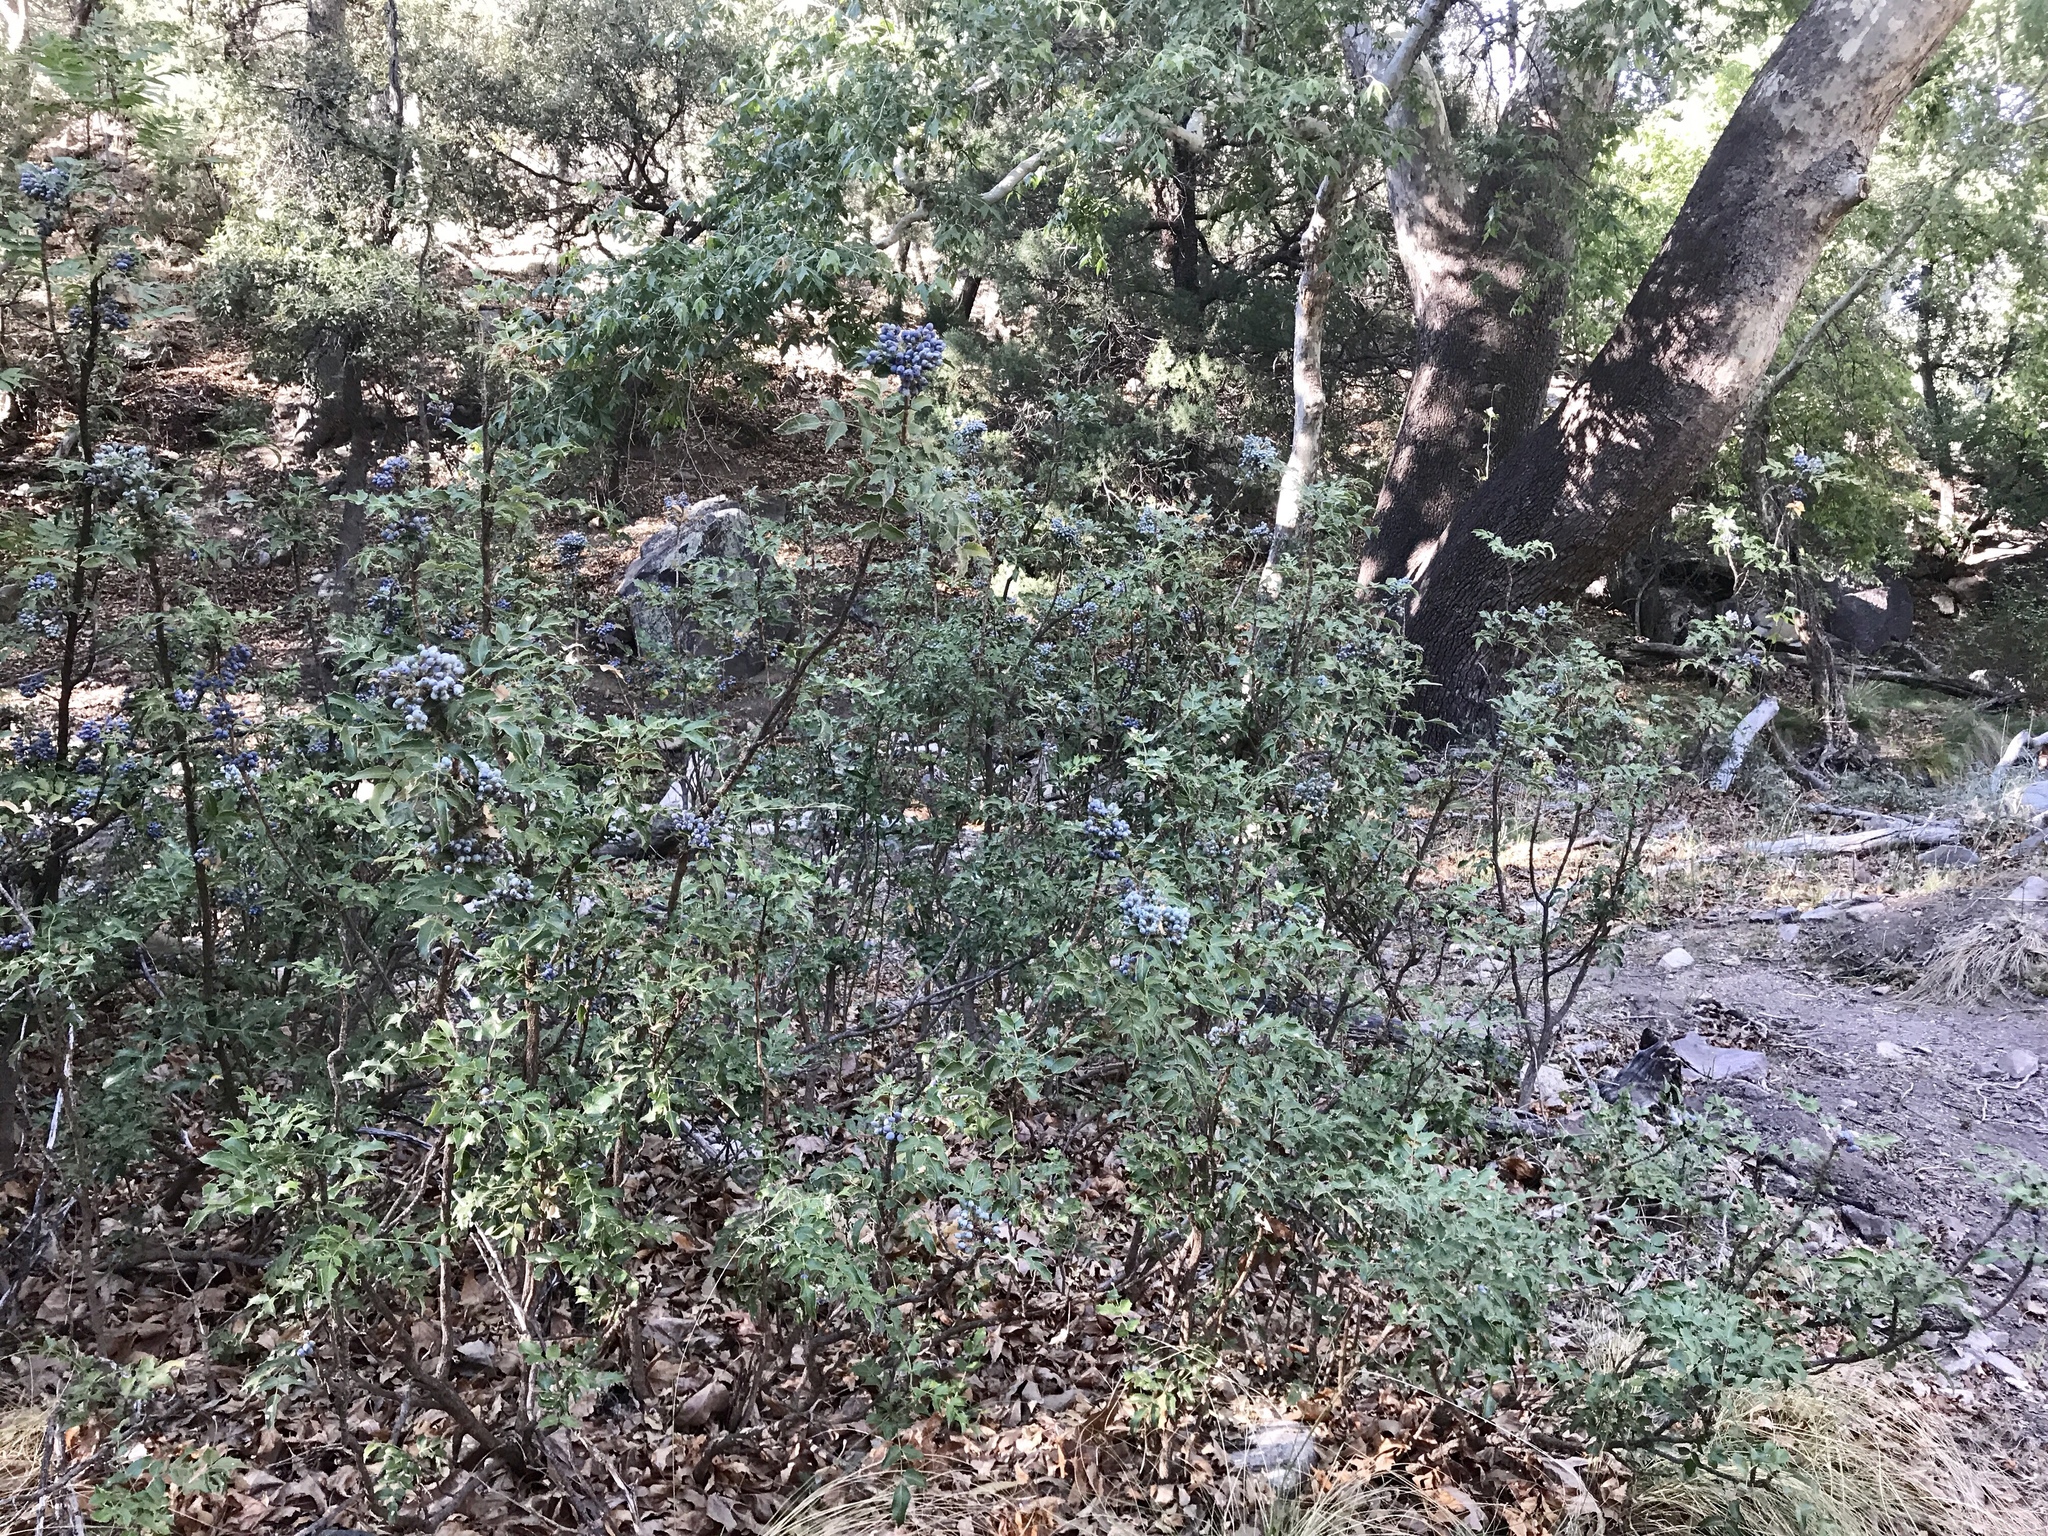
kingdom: Plantae
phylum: Tracheophyta
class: Magnoliopsida
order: Ranunculales
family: Berberidaceae
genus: Mahonia
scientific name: Mahonia wilcoxii
